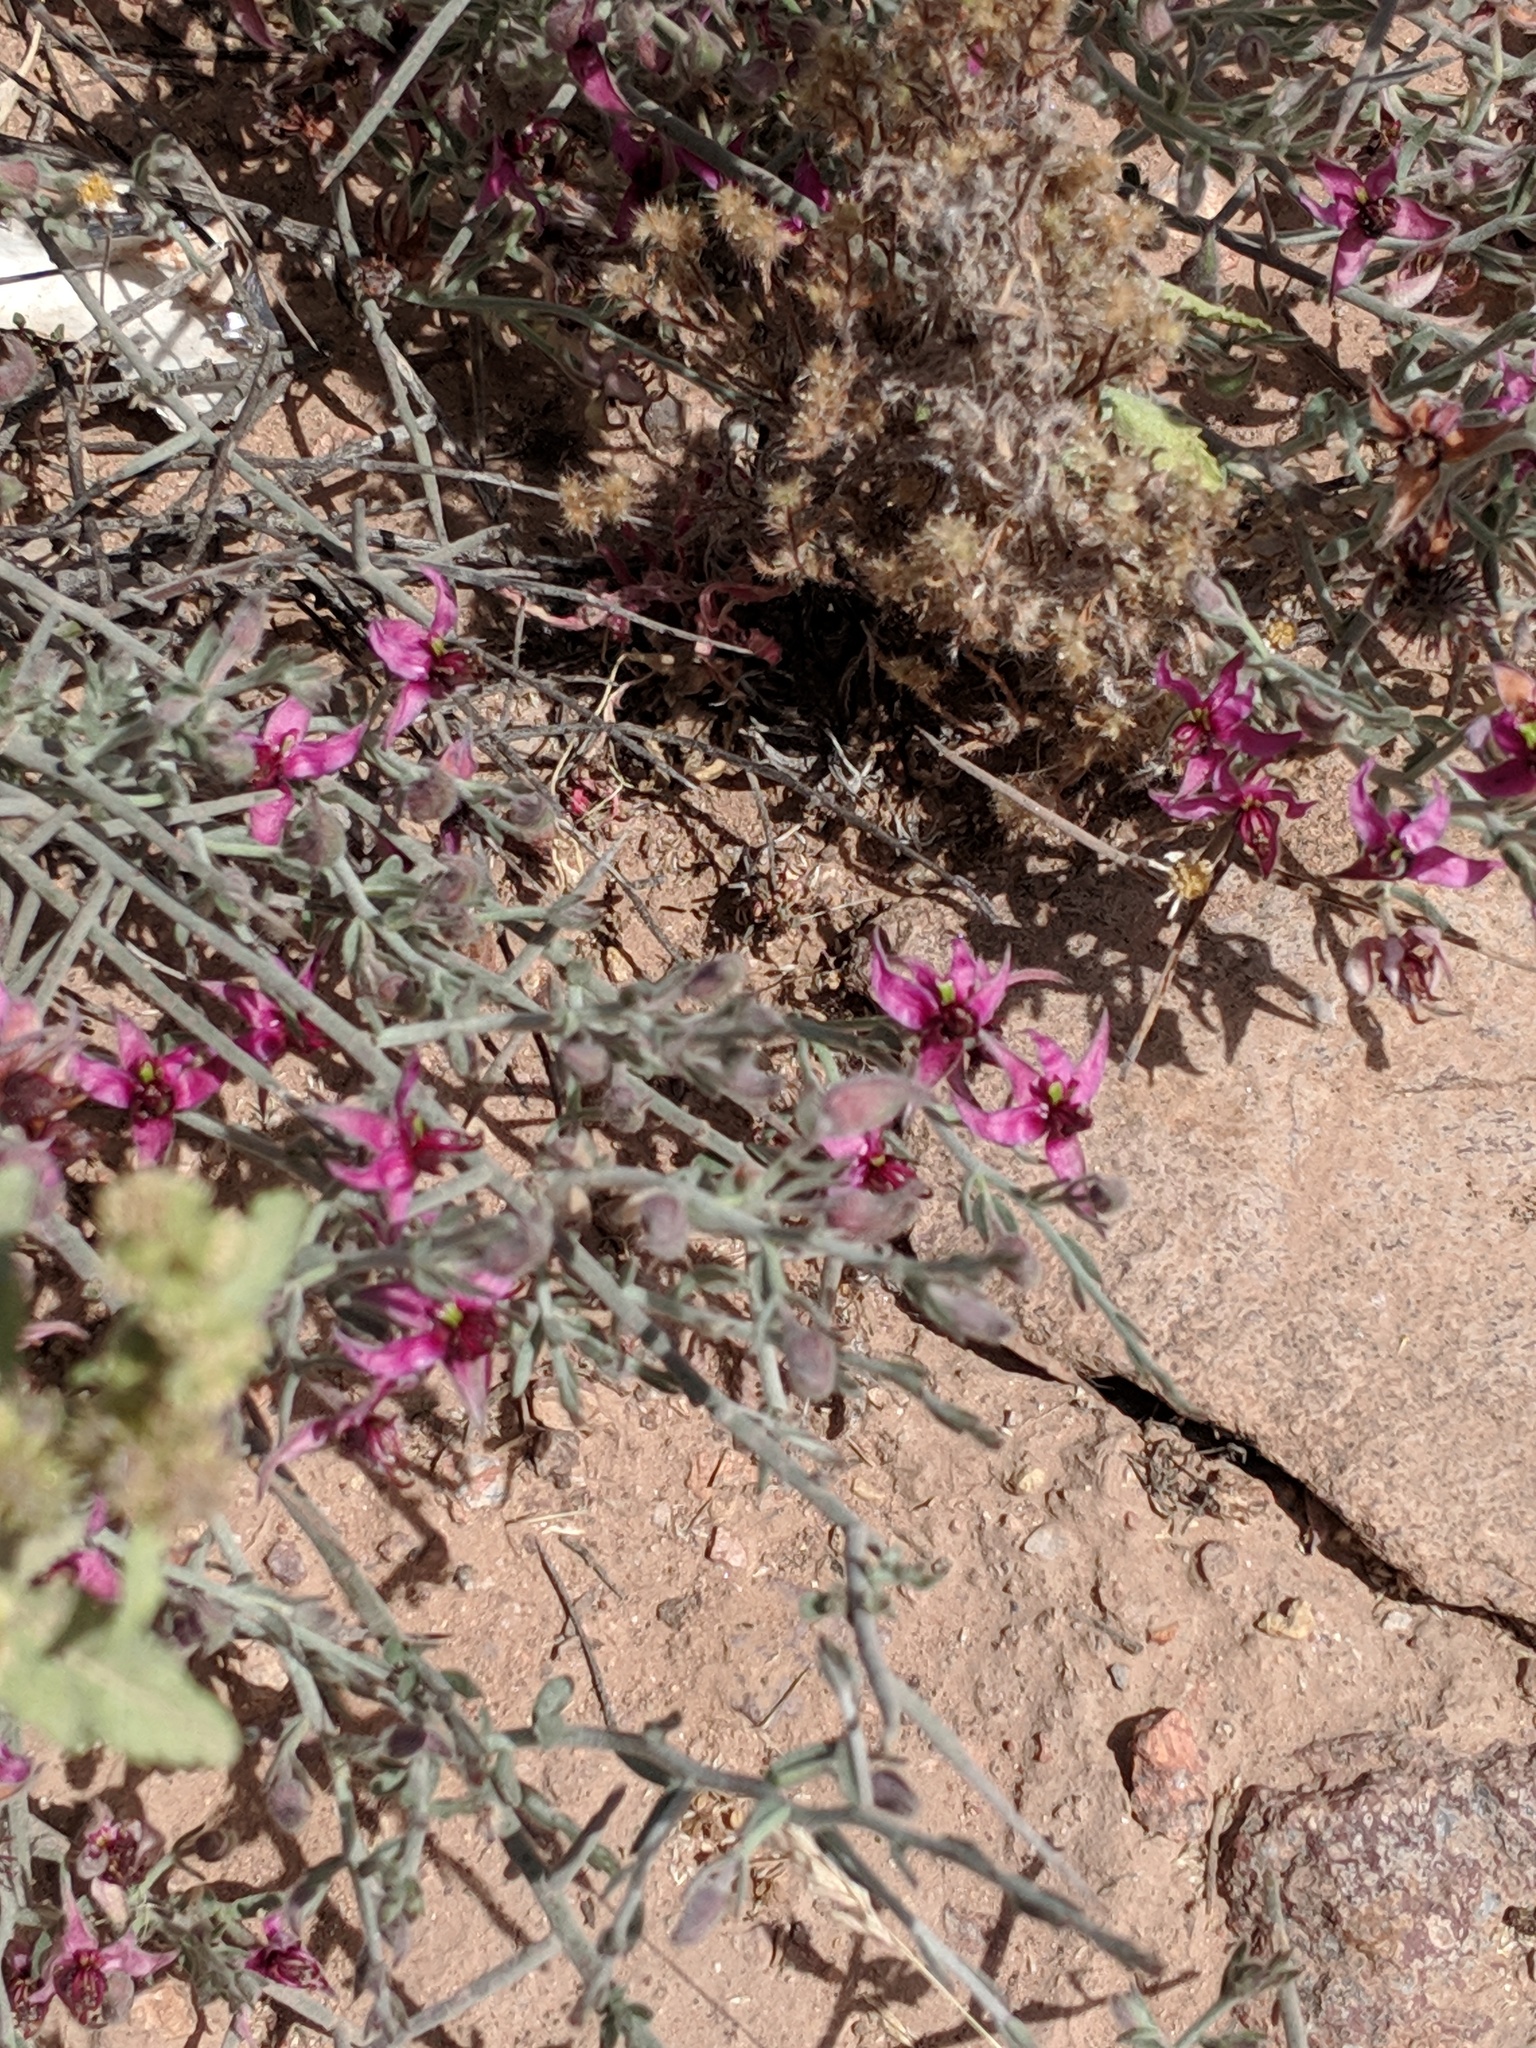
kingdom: Plantae
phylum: Tracheophyta
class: Magnoliopsida
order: Zygophyllales
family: Krameriaceae
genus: Krameria
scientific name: Krameria bicolor
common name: White ratany
